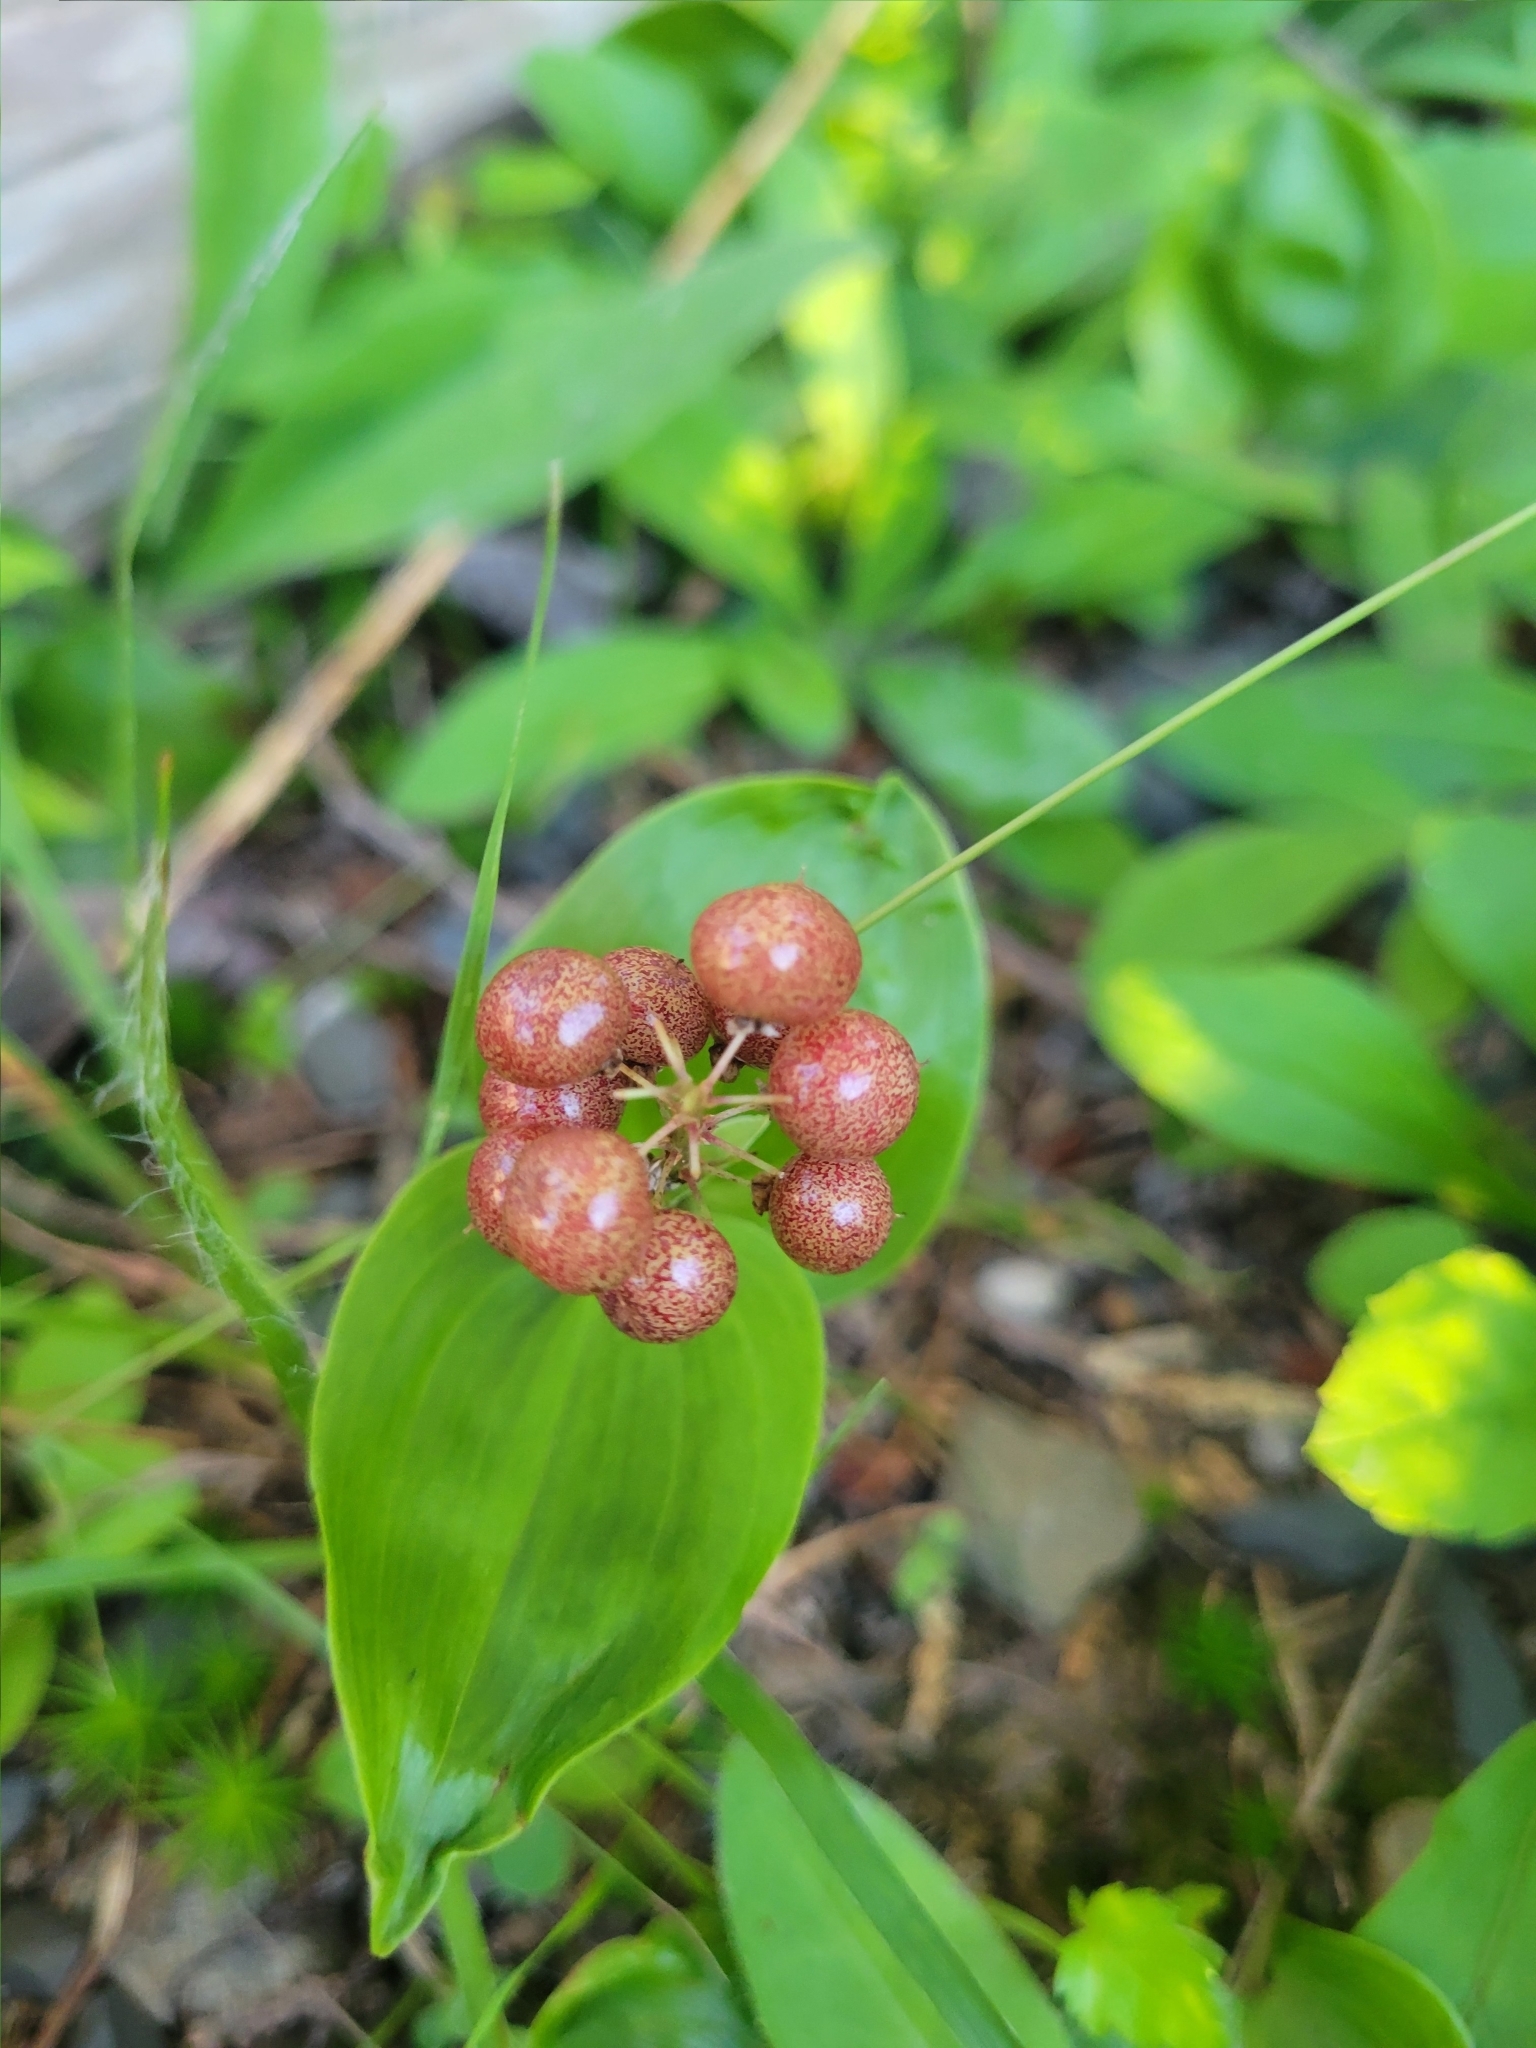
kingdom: Plantae
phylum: Tracheophyta
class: Liliopsida
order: Asparagales
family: Asparagaceae
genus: Maianthemum
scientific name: Maianthemum canadense
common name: False lily-of-the-valley
